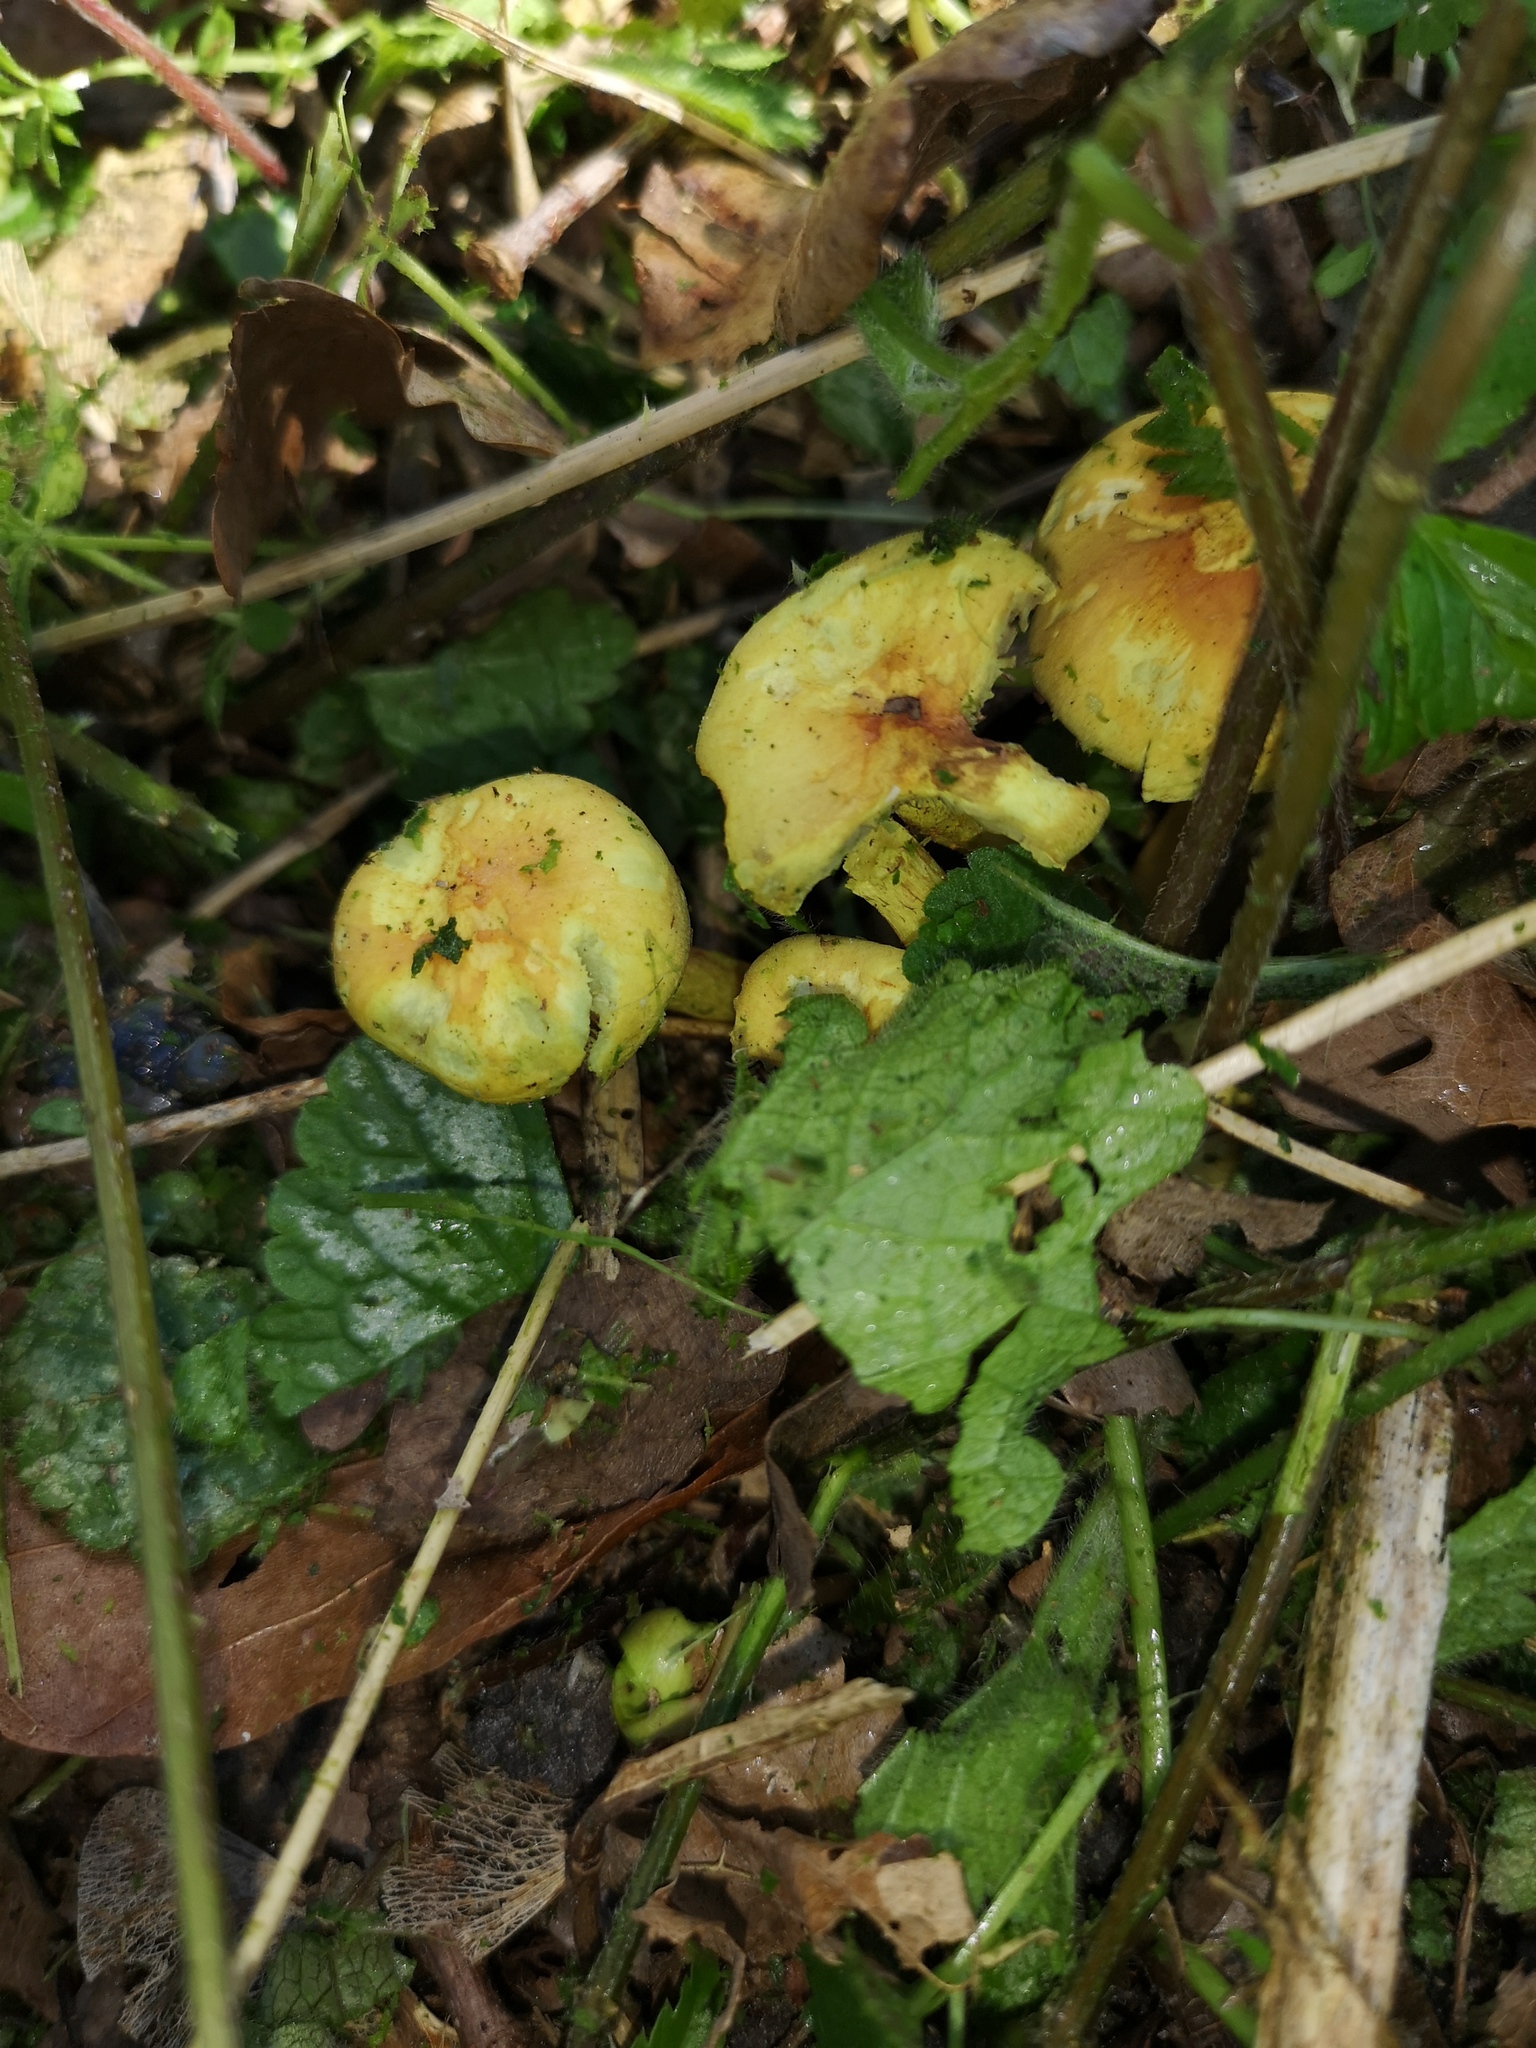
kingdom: Fungi
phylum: Basidiomycota
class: Agaricomycetes
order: Agaricales
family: Strophariaceae
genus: Hypholoma
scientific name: Hypholoma fasciculare
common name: Sulphur tuft
